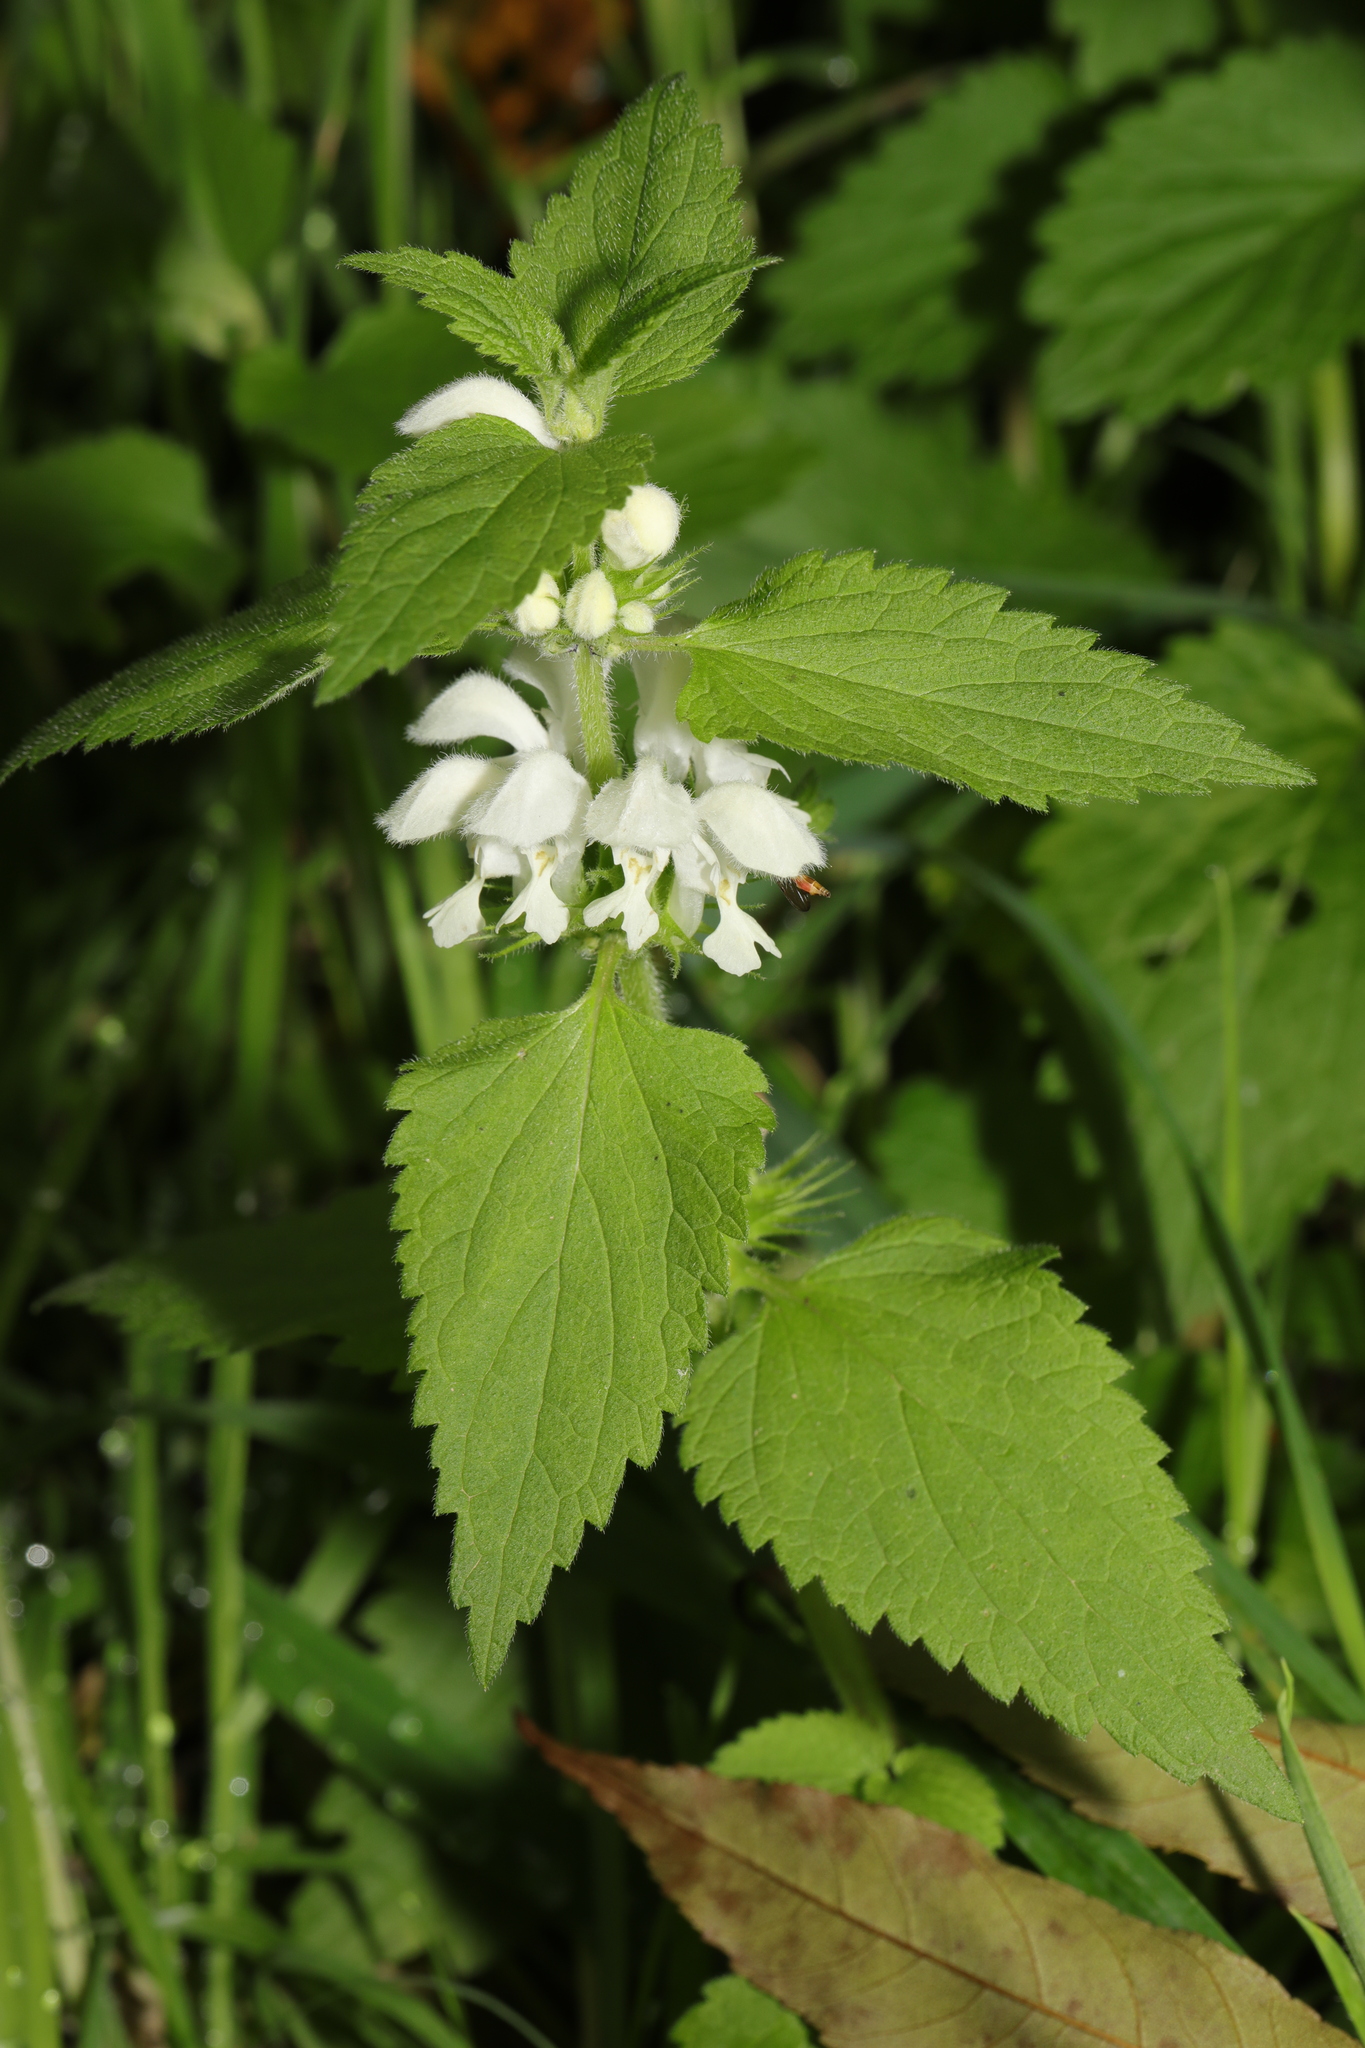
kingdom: Plantae
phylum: Tracheophyta
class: Magnoliopsida
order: Lamiales
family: Lamiaceae
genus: Lamium
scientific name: Lamium album
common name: White dead-nettle
